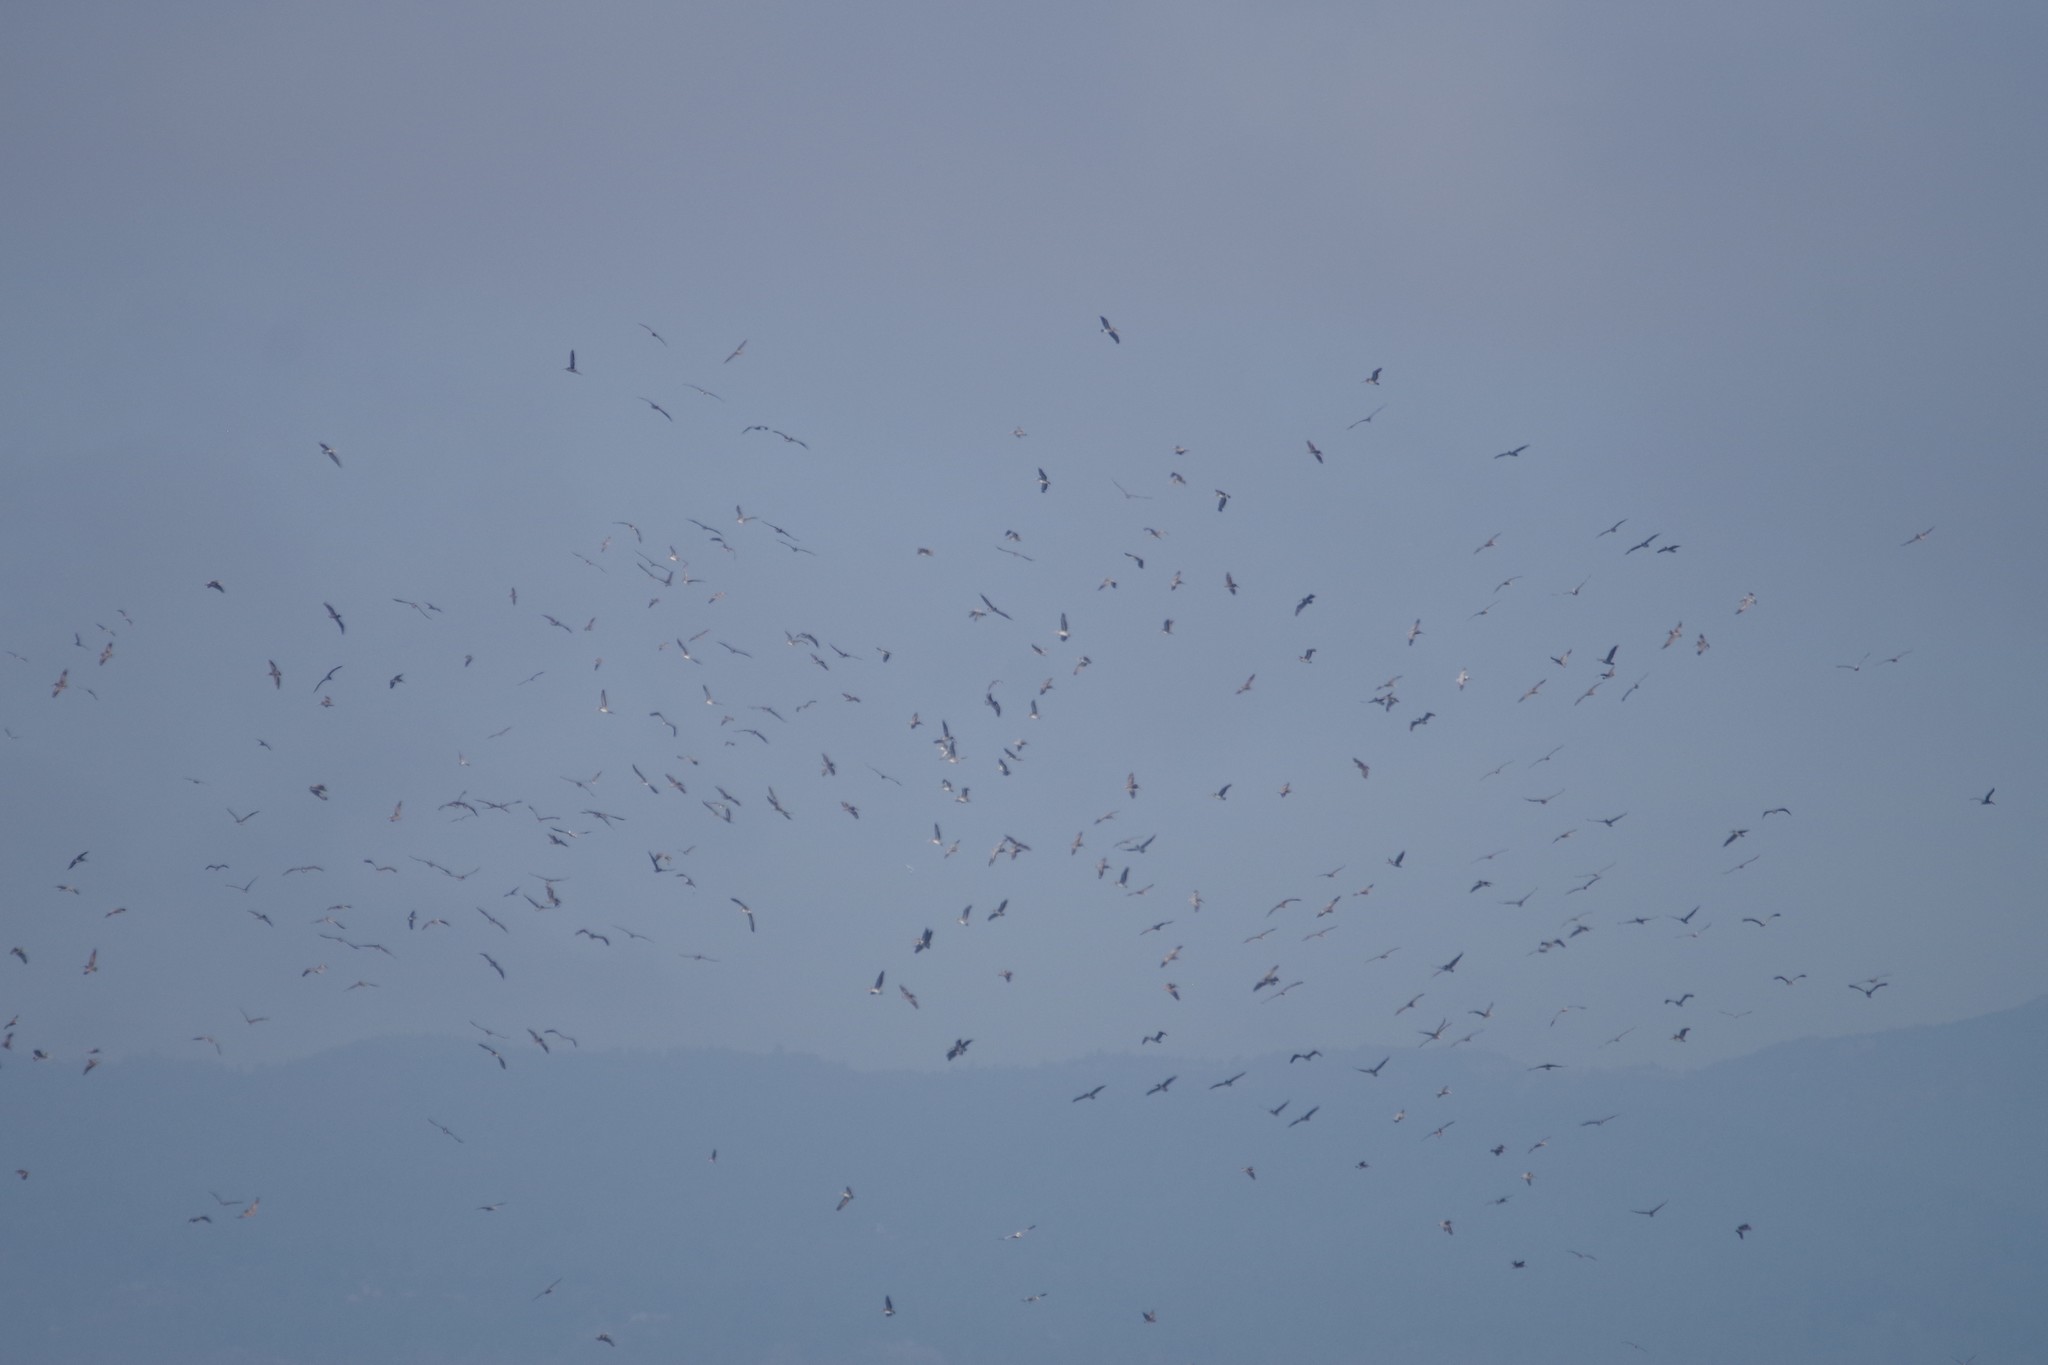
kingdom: Animalia
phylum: Chordata
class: Aves
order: Pelecaniformes
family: Pelecanidae
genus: Pelecanus
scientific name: Pelecanus occidentalis
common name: Brown pelican
